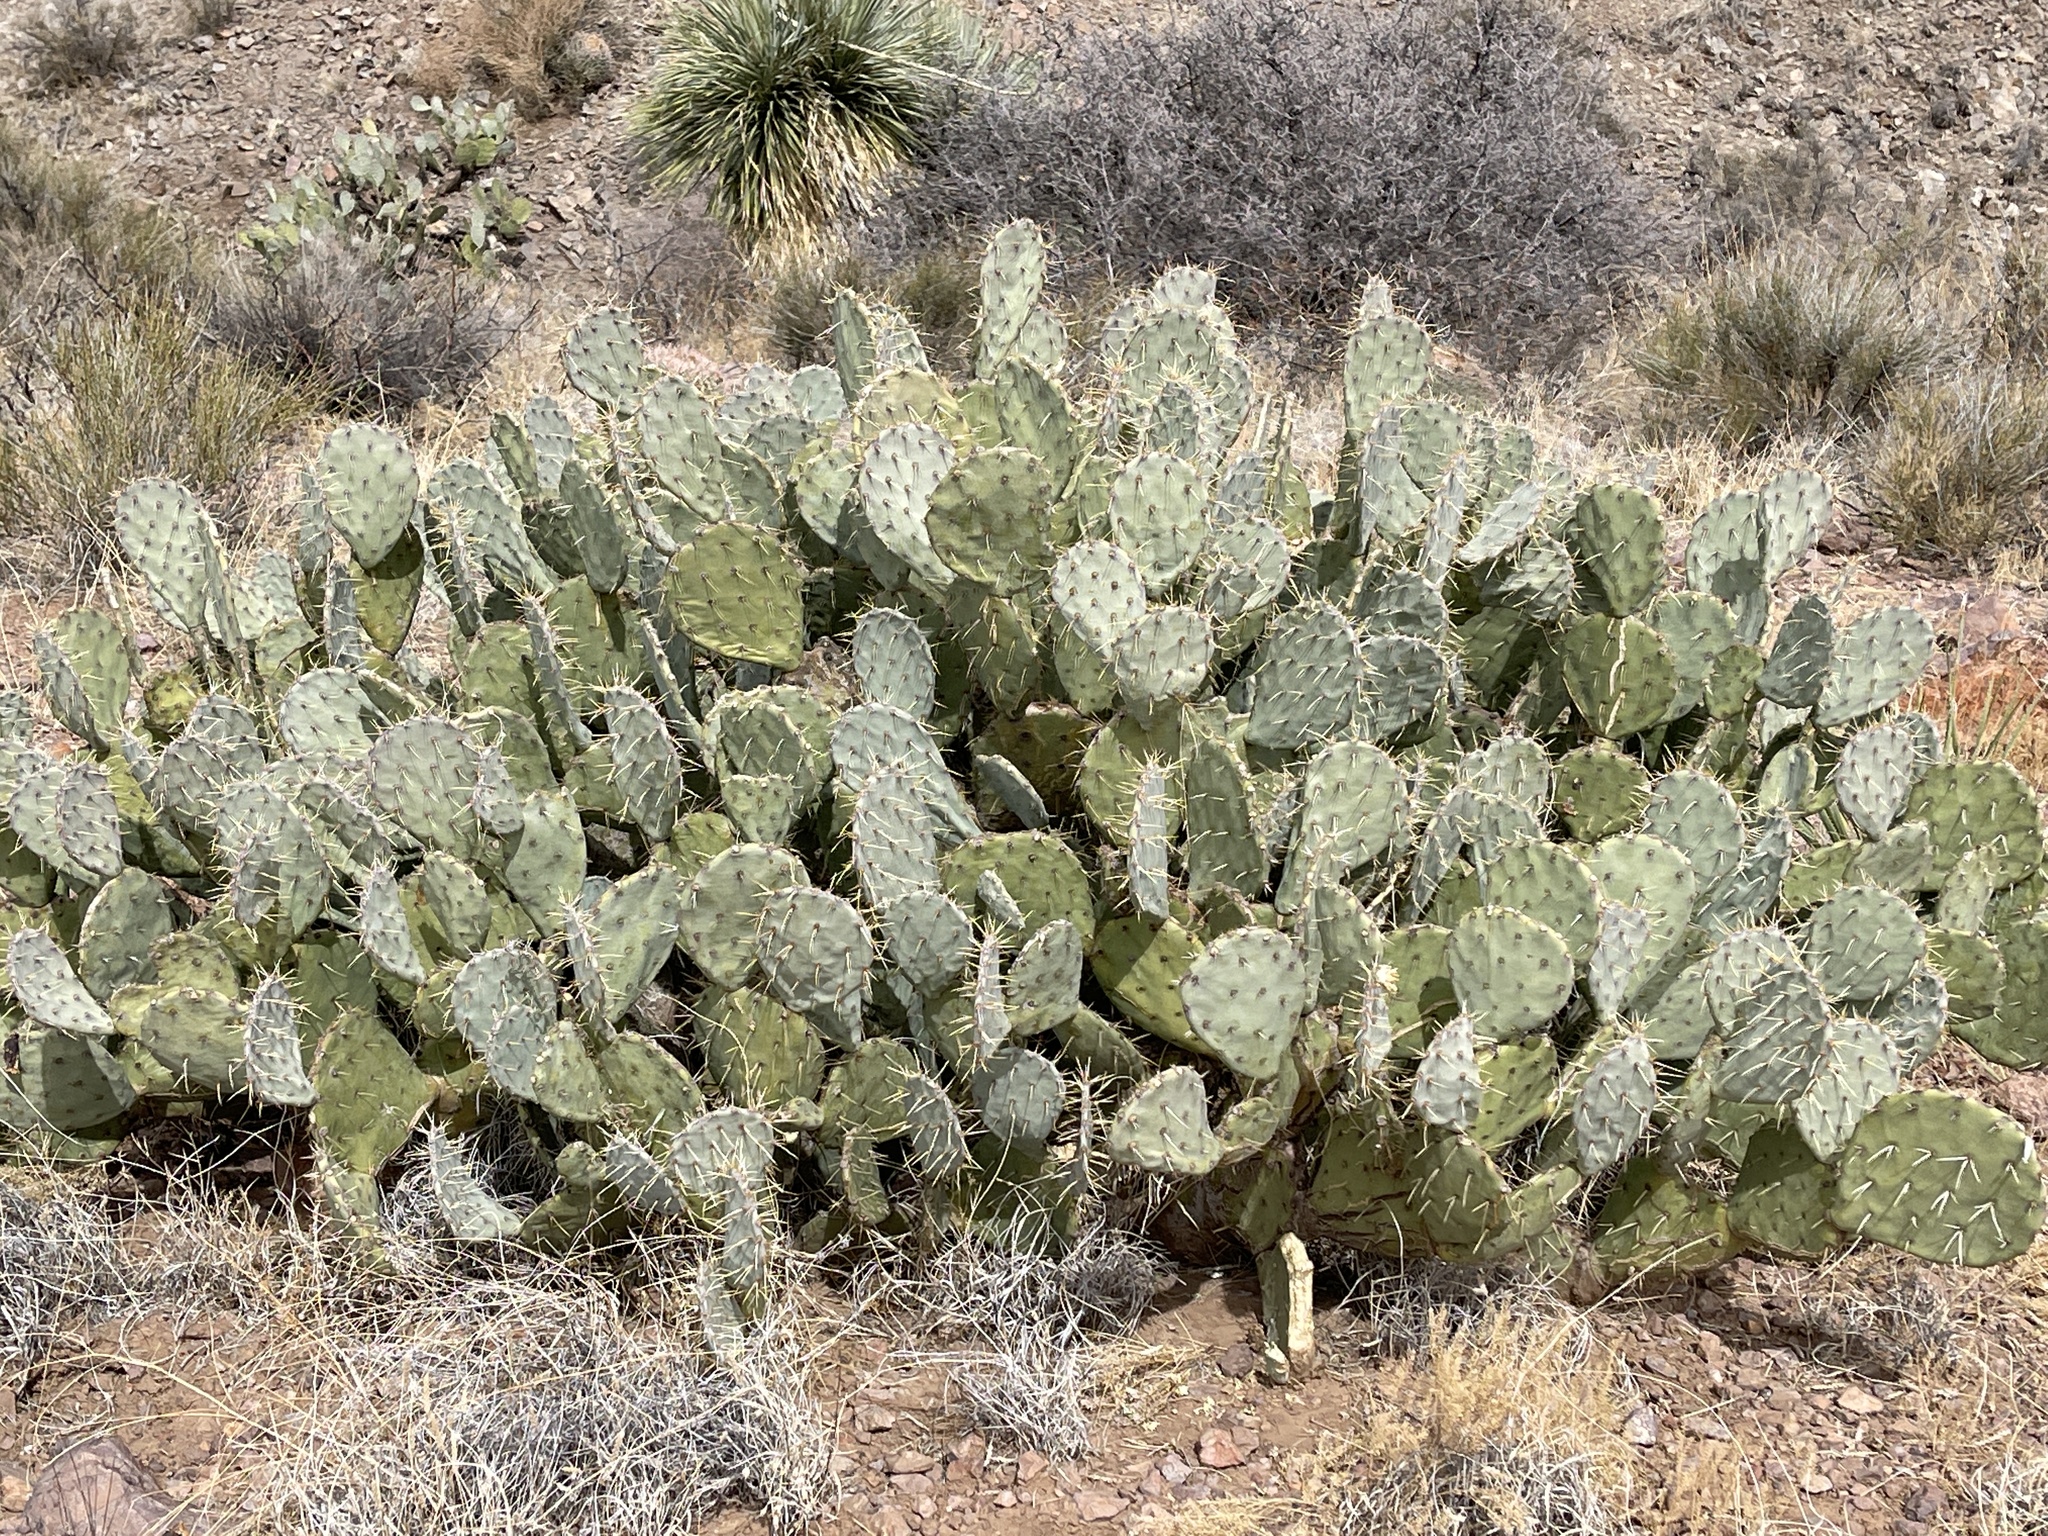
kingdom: Plantae
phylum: Tracheophyta
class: Magnoliopsida
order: Caryophyllales
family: Cactaceae
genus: Opuntia
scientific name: Opuntia engelmannii
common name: Cactus-apple
